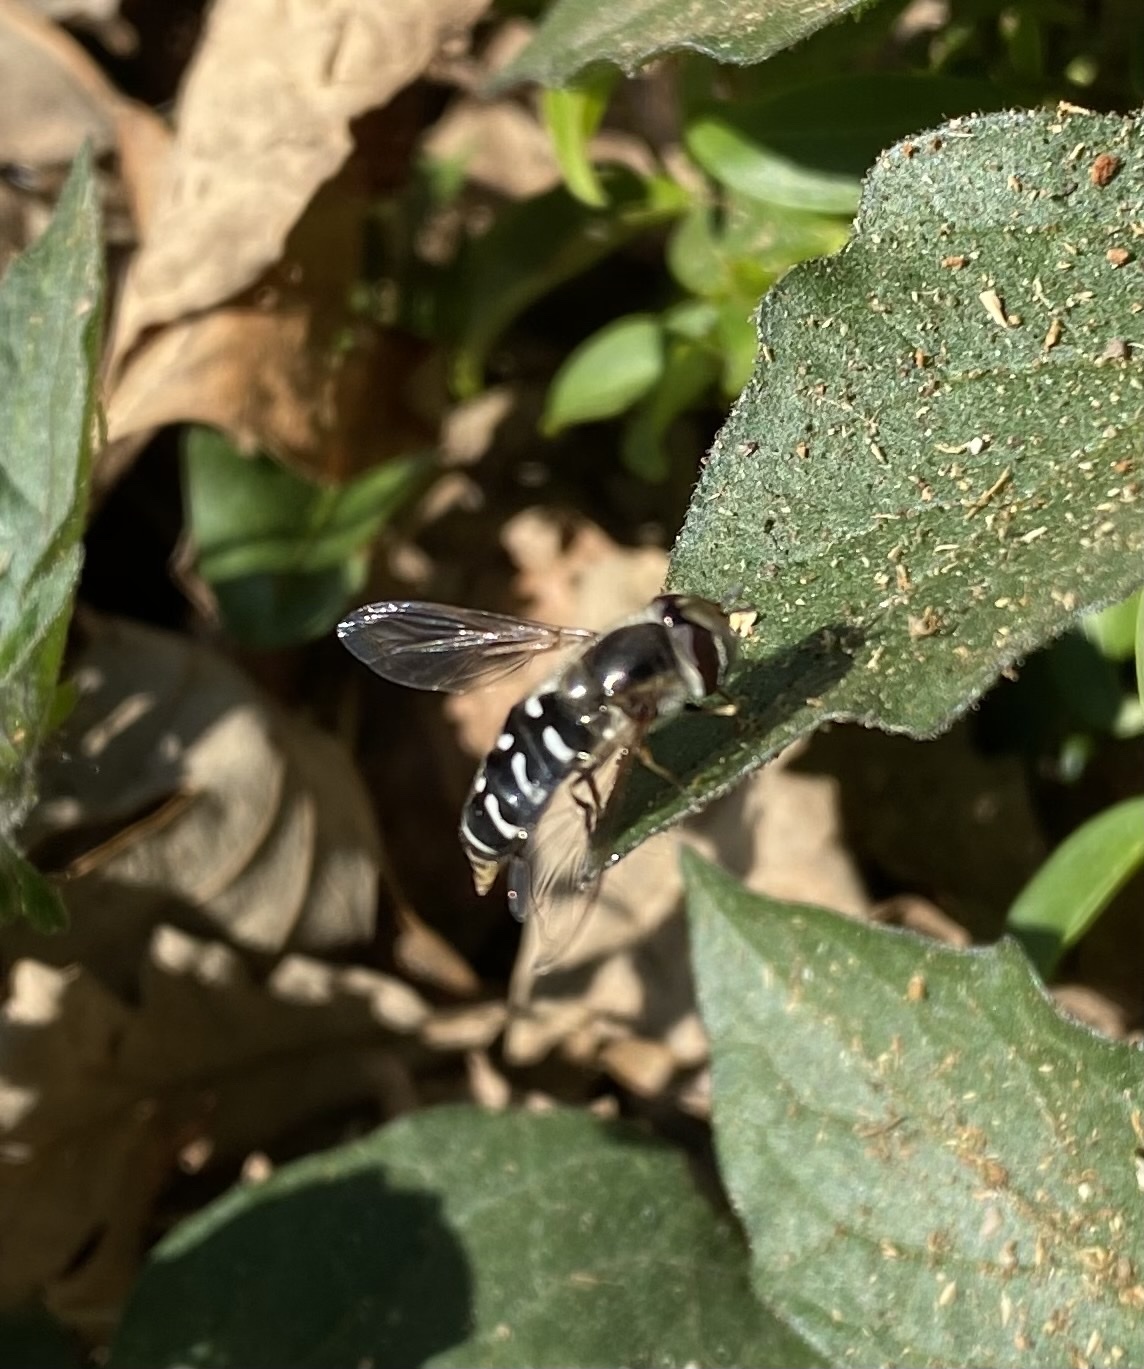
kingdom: Animalia
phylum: Arthropoda
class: Insecta
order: Diptera
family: Syrphidae
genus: Scaeva
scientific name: Scaeva affinis
